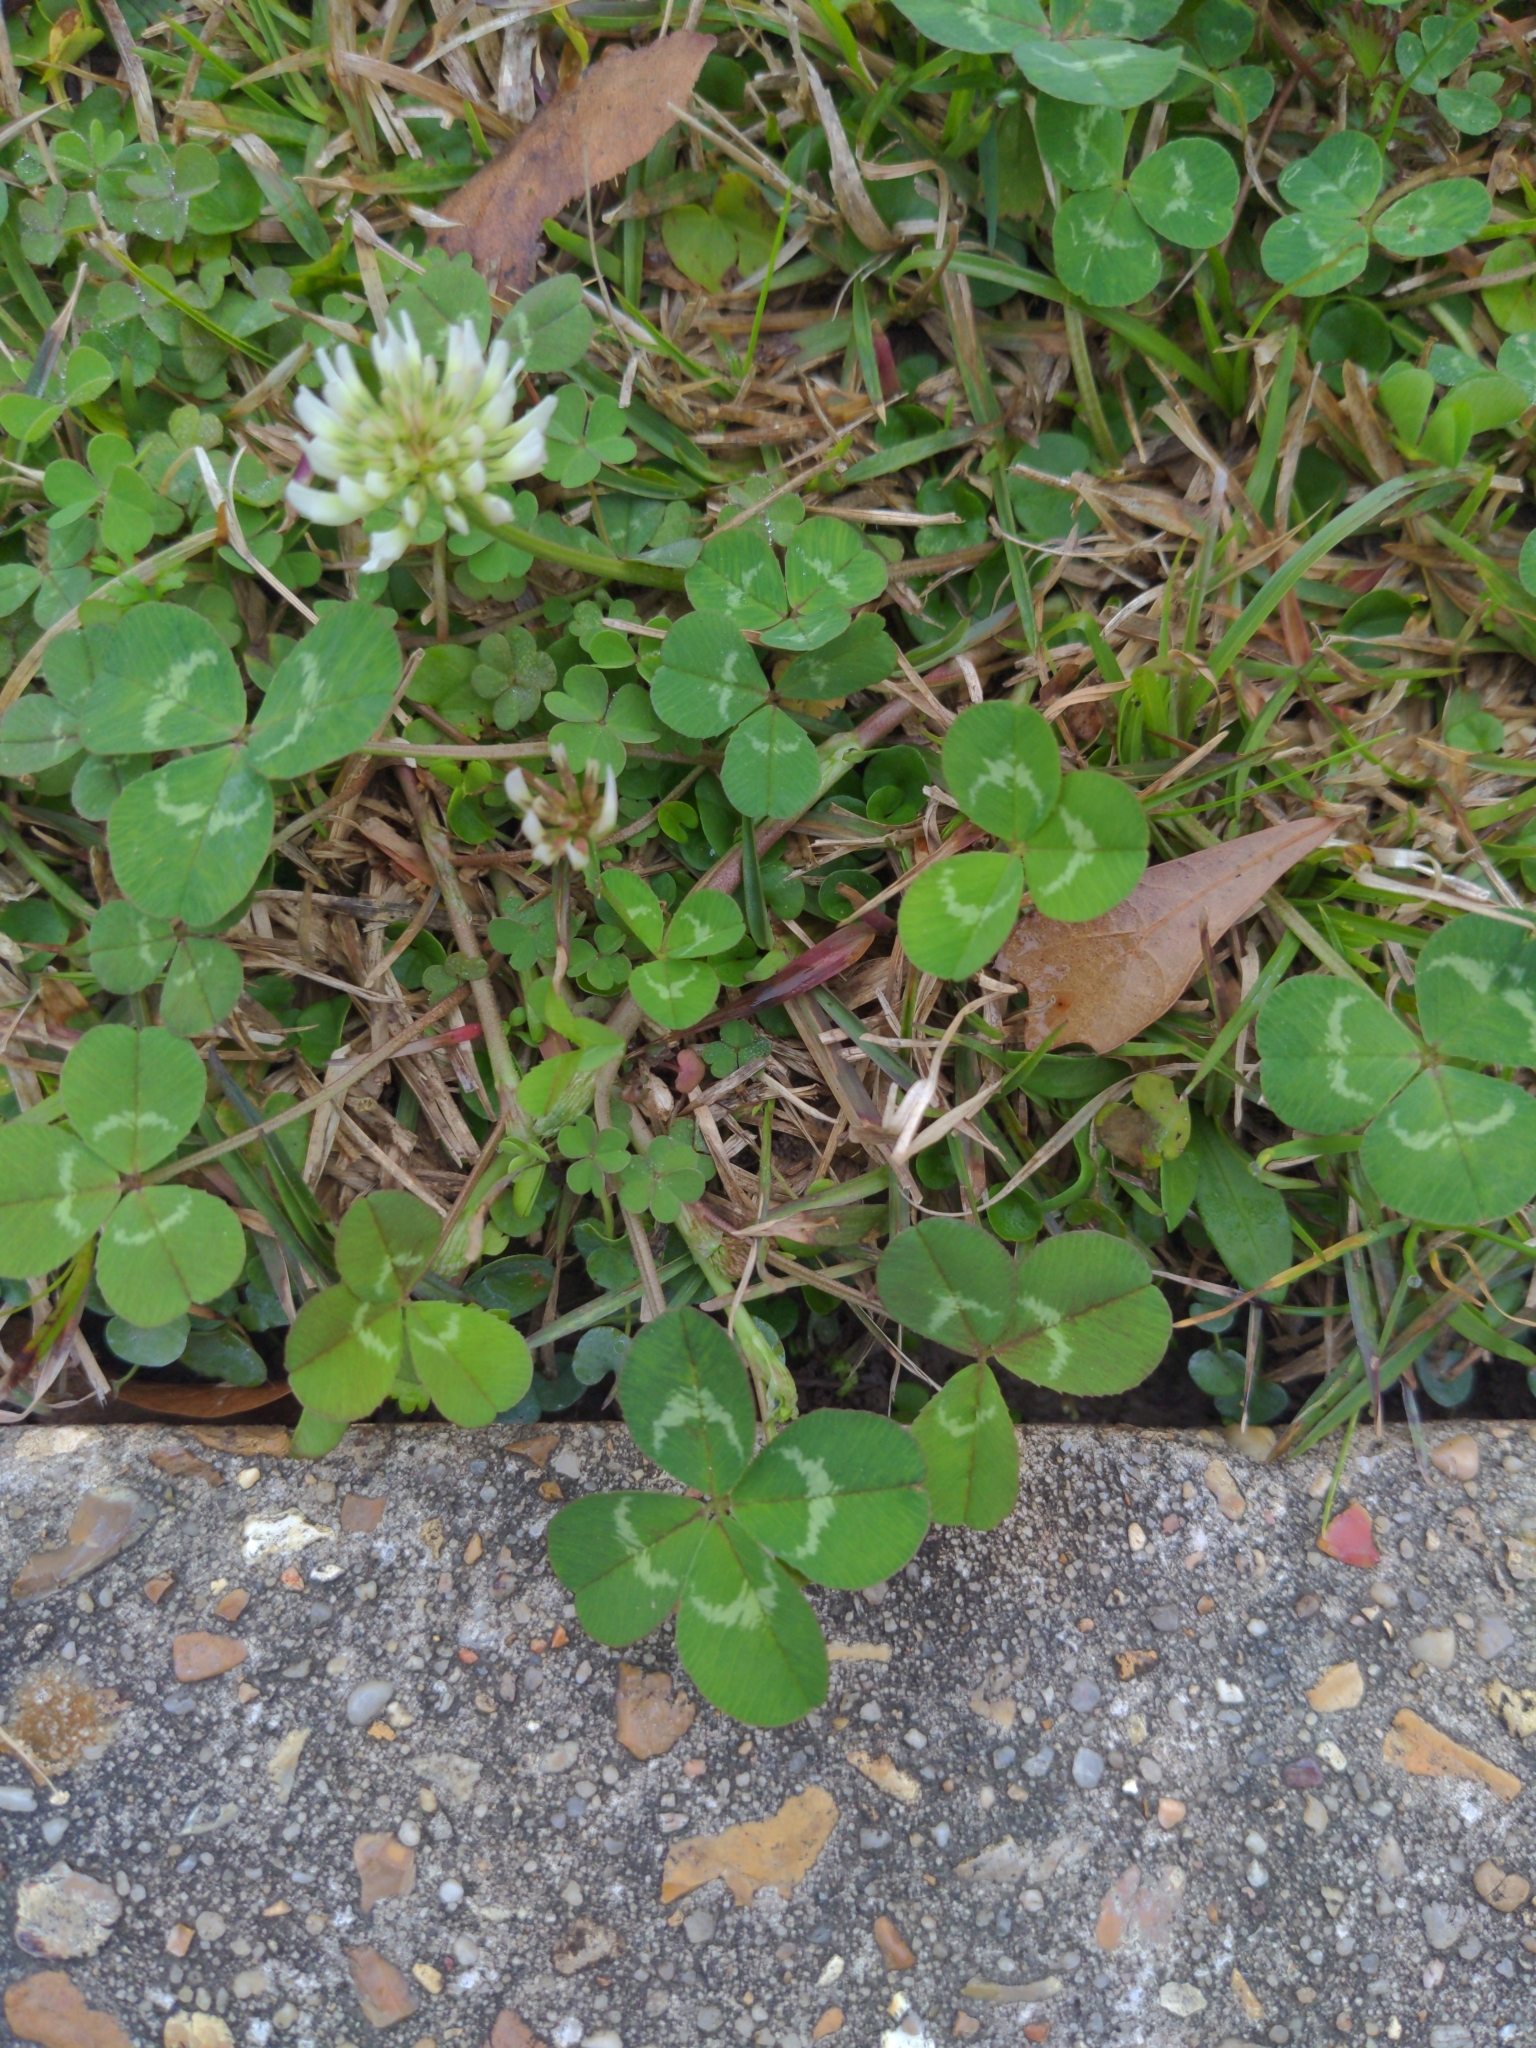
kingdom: Plantae
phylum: Tracheophyta
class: Magnoliopsida
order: Fabales
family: Fabaceae
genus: Trifolium
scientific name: Trifolium repens
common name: White clover
